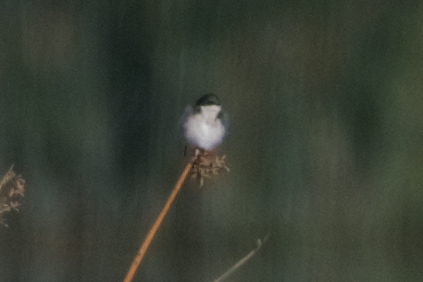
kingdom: Animalia
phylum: Chordata
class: Aves
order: Passeriformes
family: Hirundinidae
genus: Tachycineta
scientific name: Tachycineta bicolor
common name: Tree swallow
